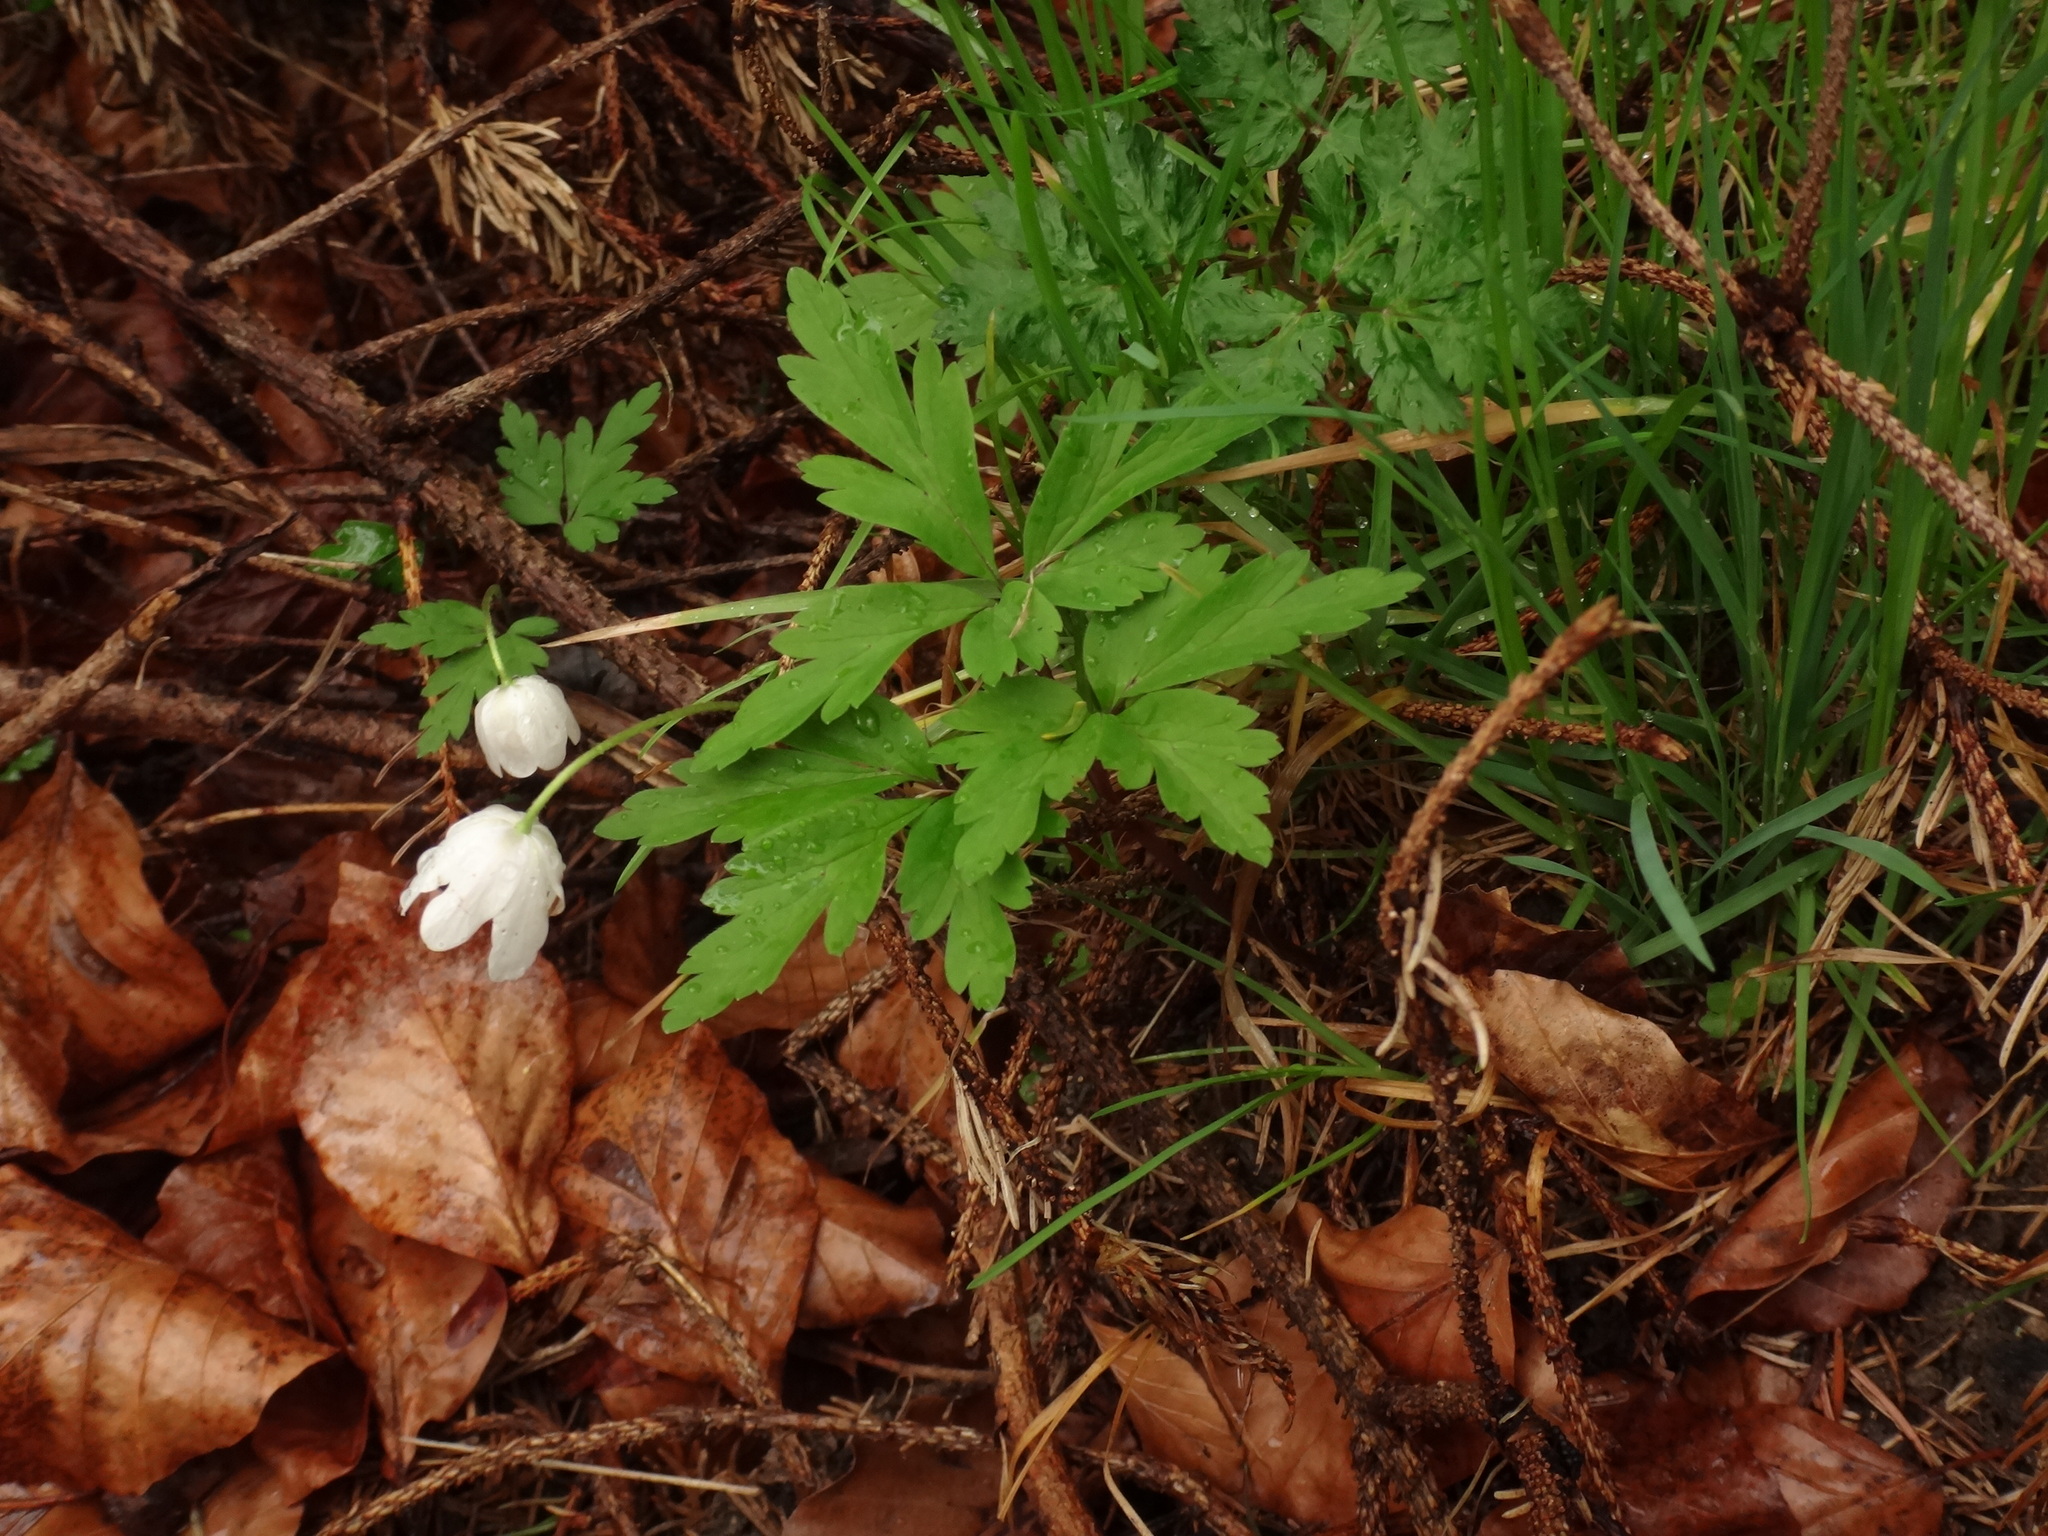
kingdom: Plantae
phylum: Tracheophyta
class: Magnoliopsida
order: Ranunculales
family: Ranunculaceae
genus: Anemone
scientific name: Anemone nemorosa
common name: Wood anemone
